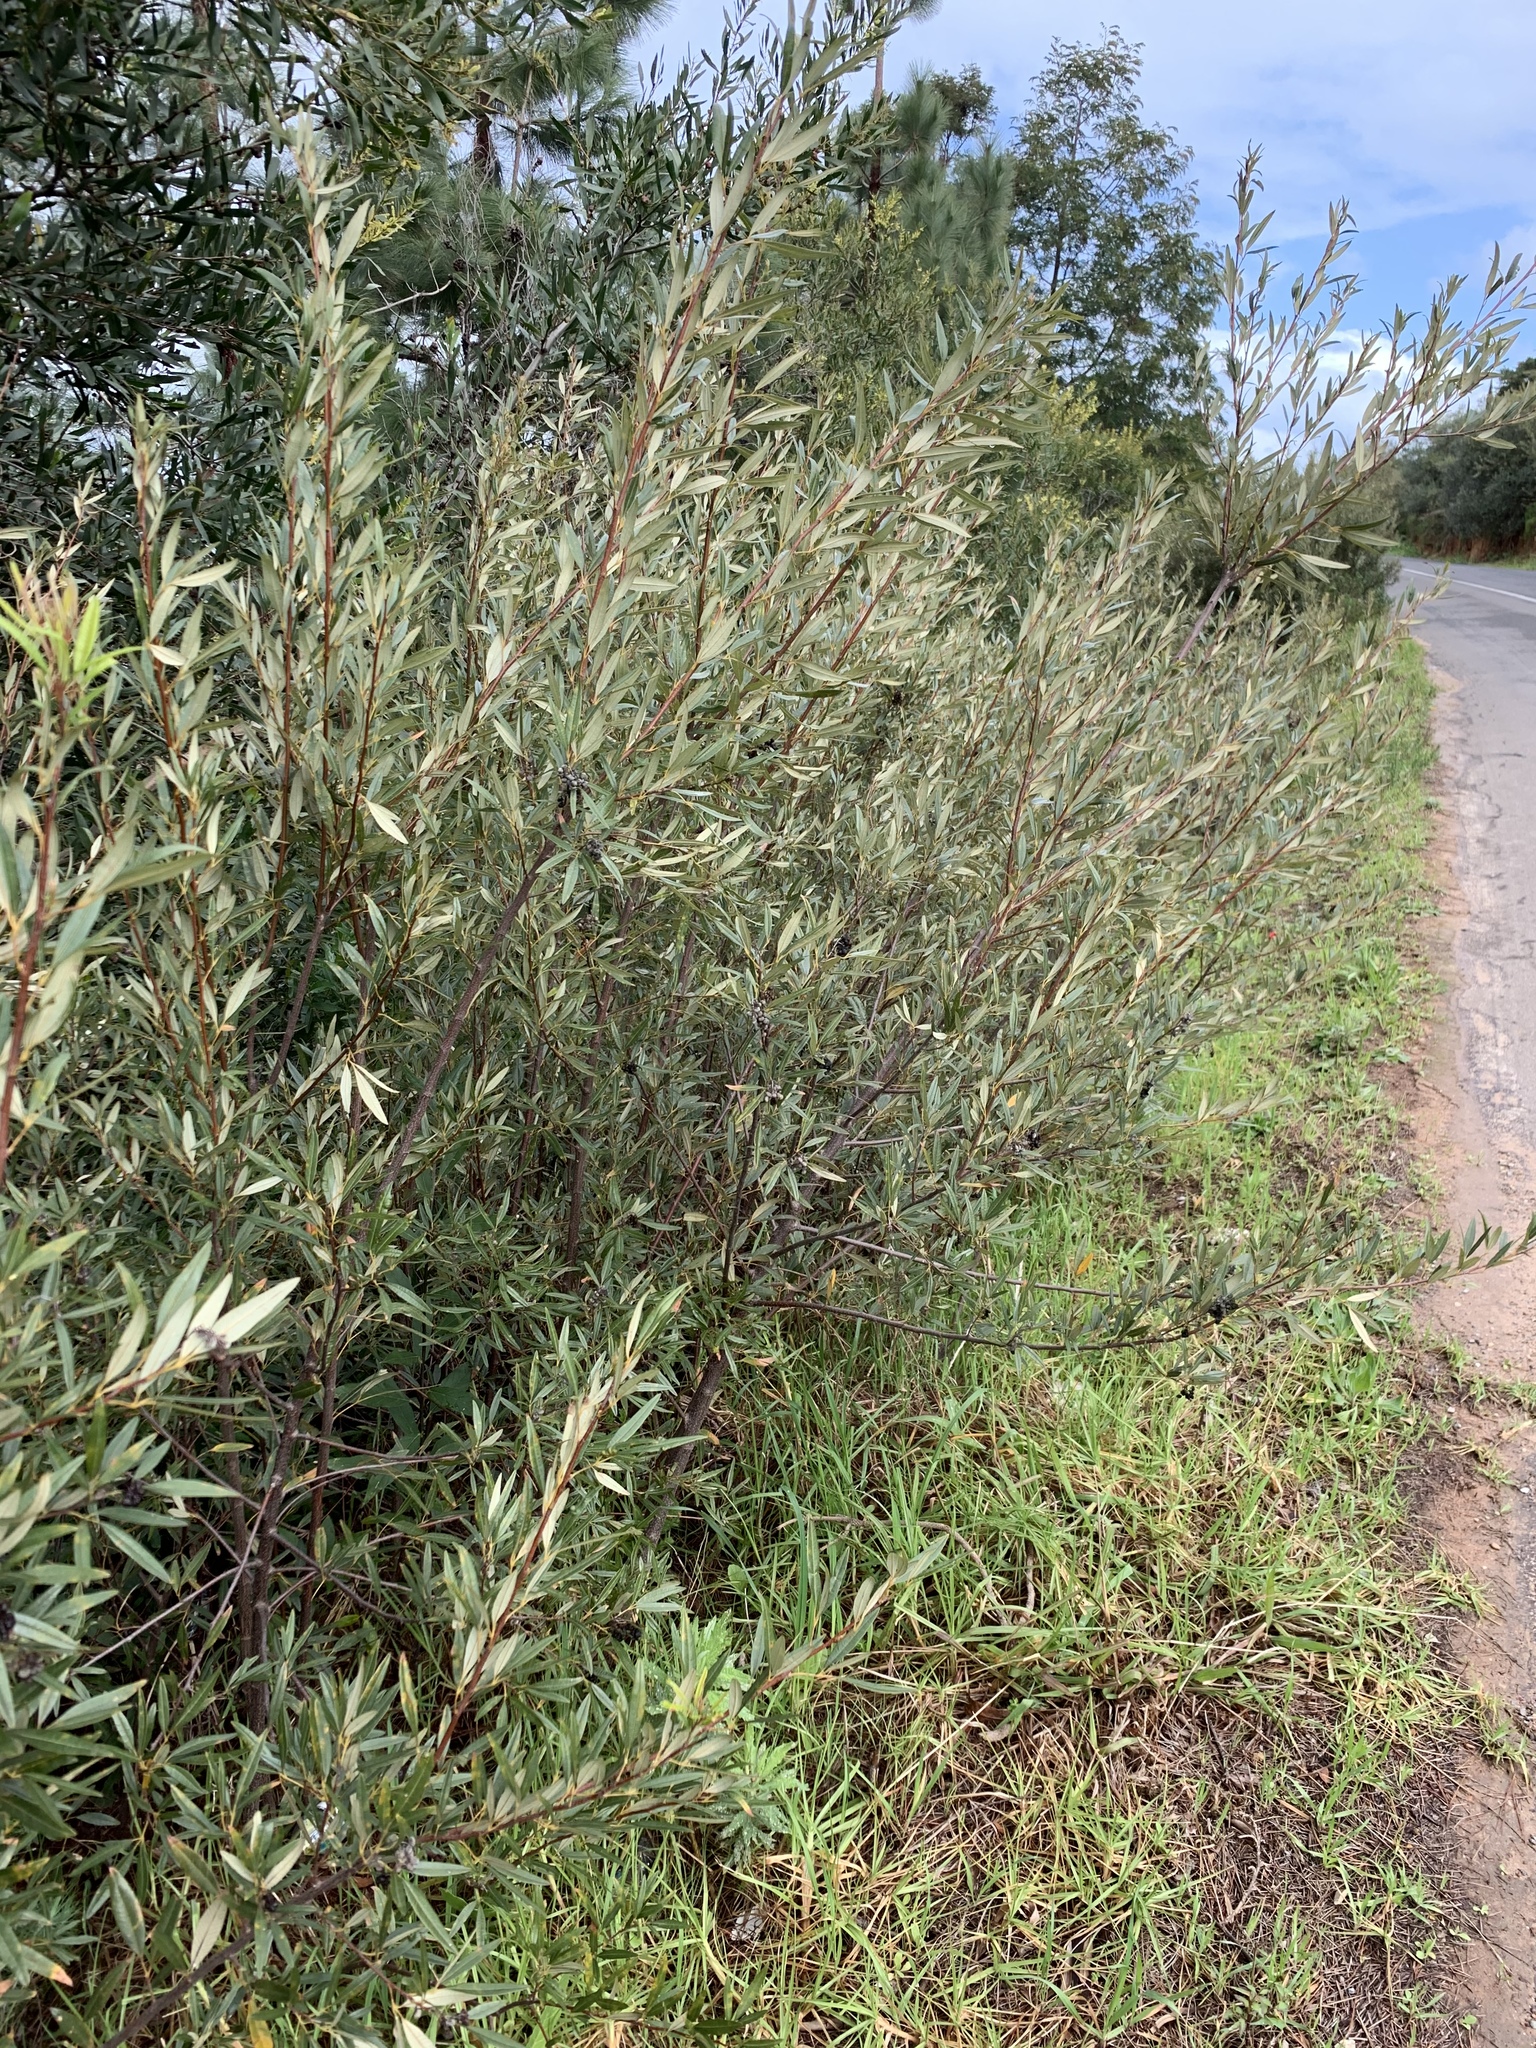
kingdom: Plantae
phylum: Tracheophyta
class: Magnoliopsida
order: Sapindales
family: Anacardiaceae
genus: Searsia
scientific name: Searsia angustifolia
